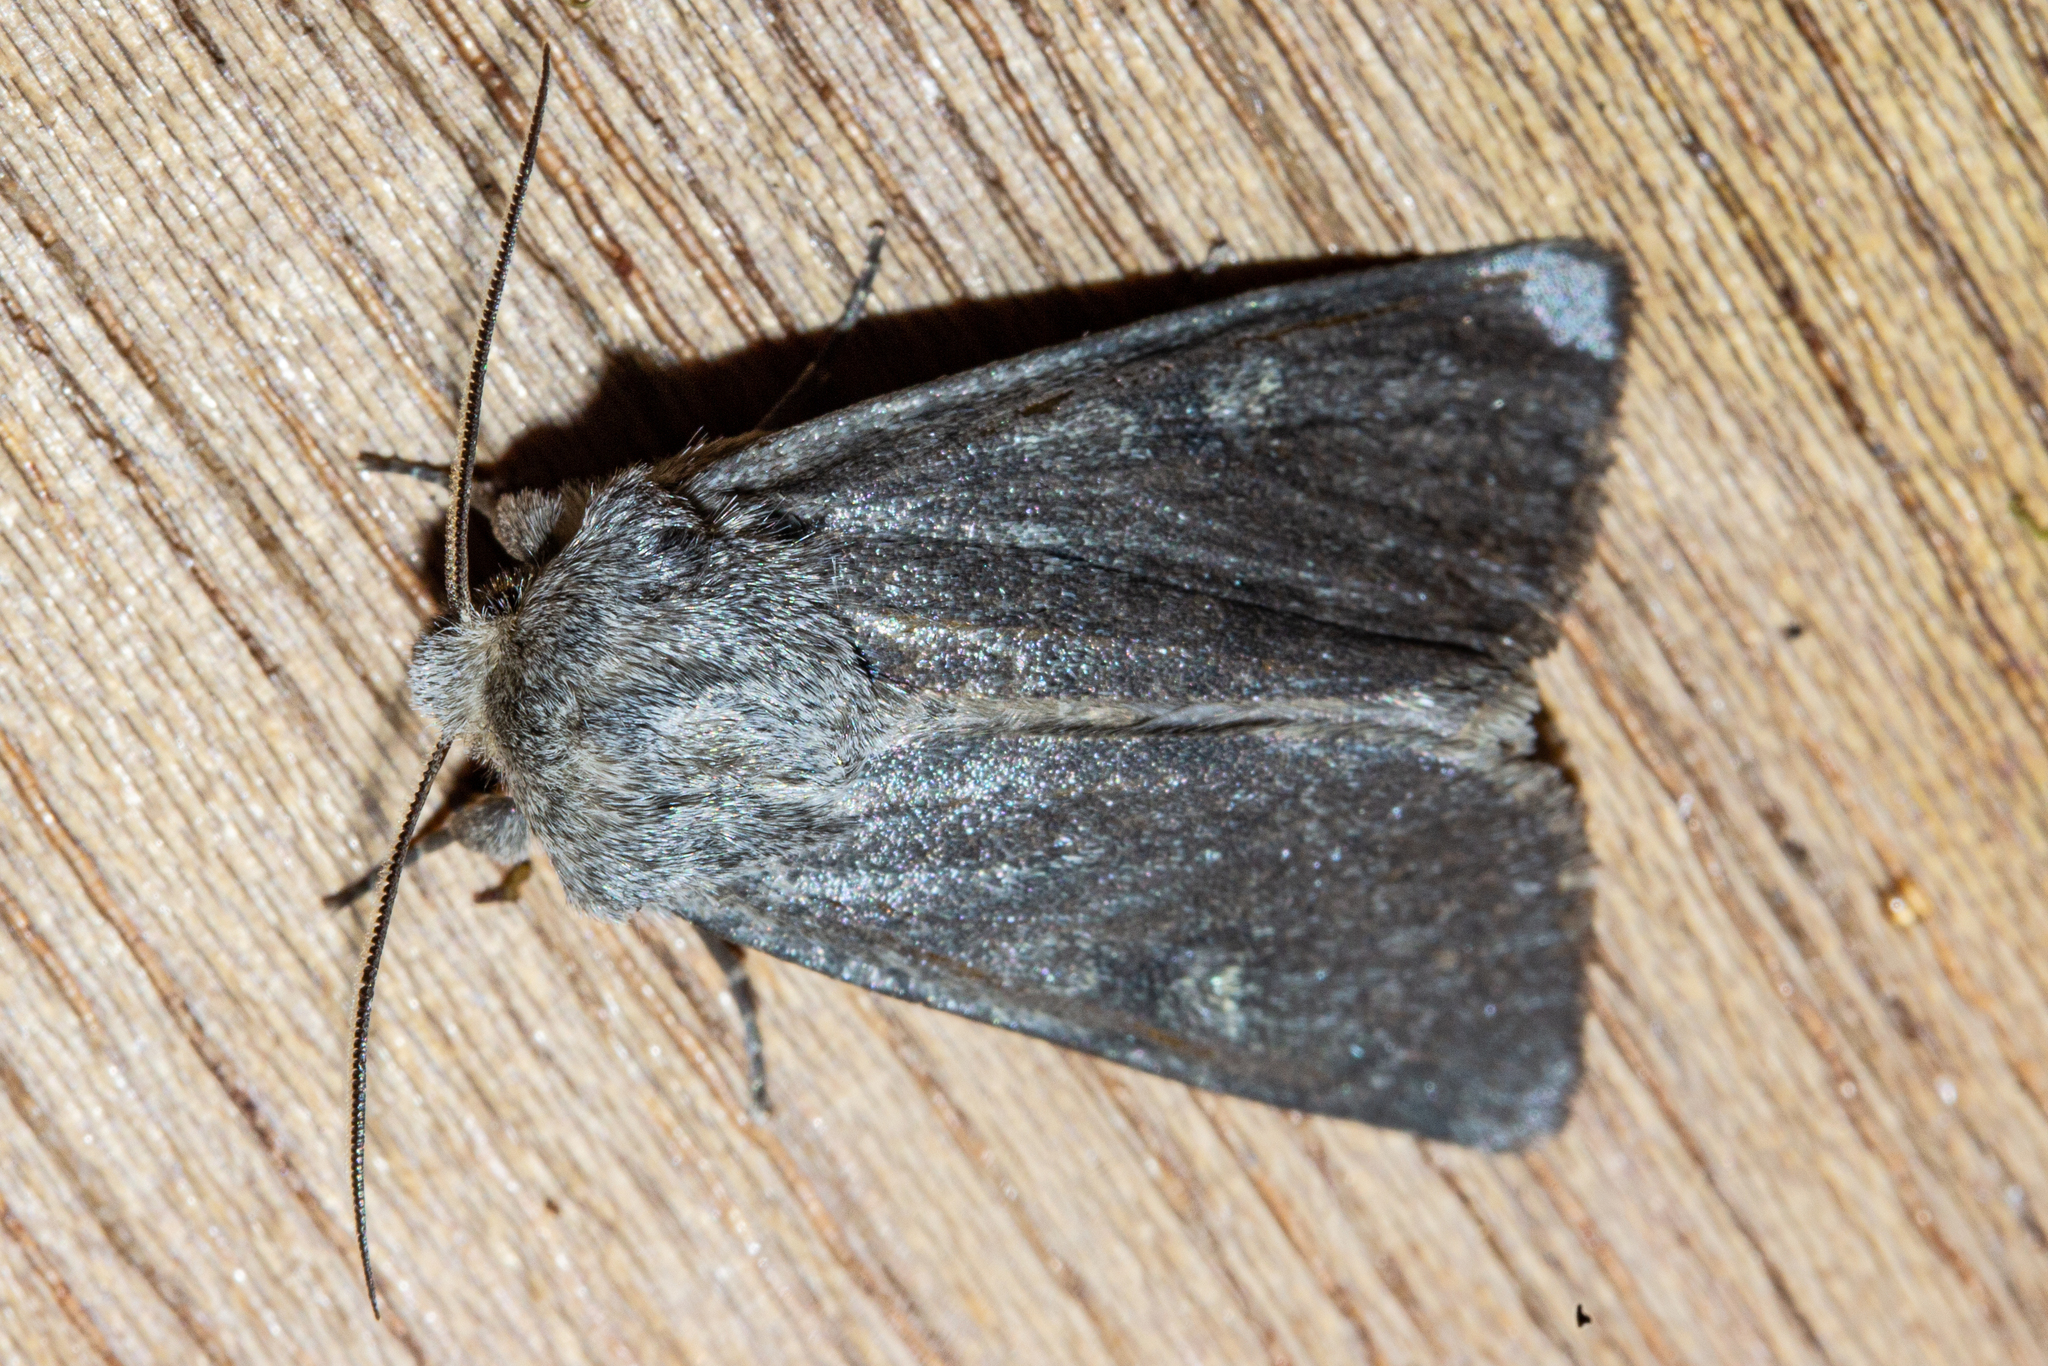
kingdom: Animalia
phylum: Arthropoda
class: Insecta
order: Lepidoptera
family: Noctuidae
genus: Ichneutica
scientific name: Ichneutica nullifera
